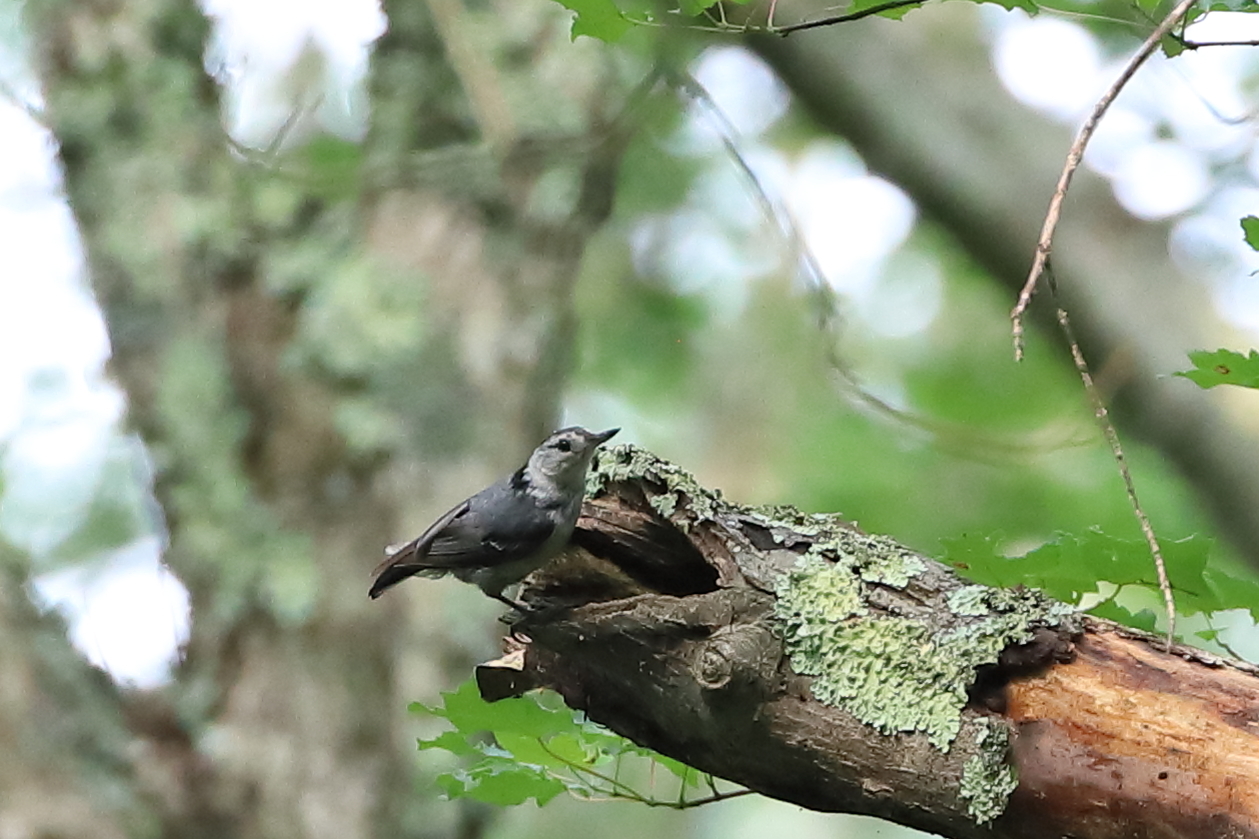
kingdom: Animalia
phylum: Chordata
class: Aves
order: Passeriformes
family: Sittidae
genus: Sitta
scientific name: Sitta carolinensis
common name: White-breasted nuthatch
